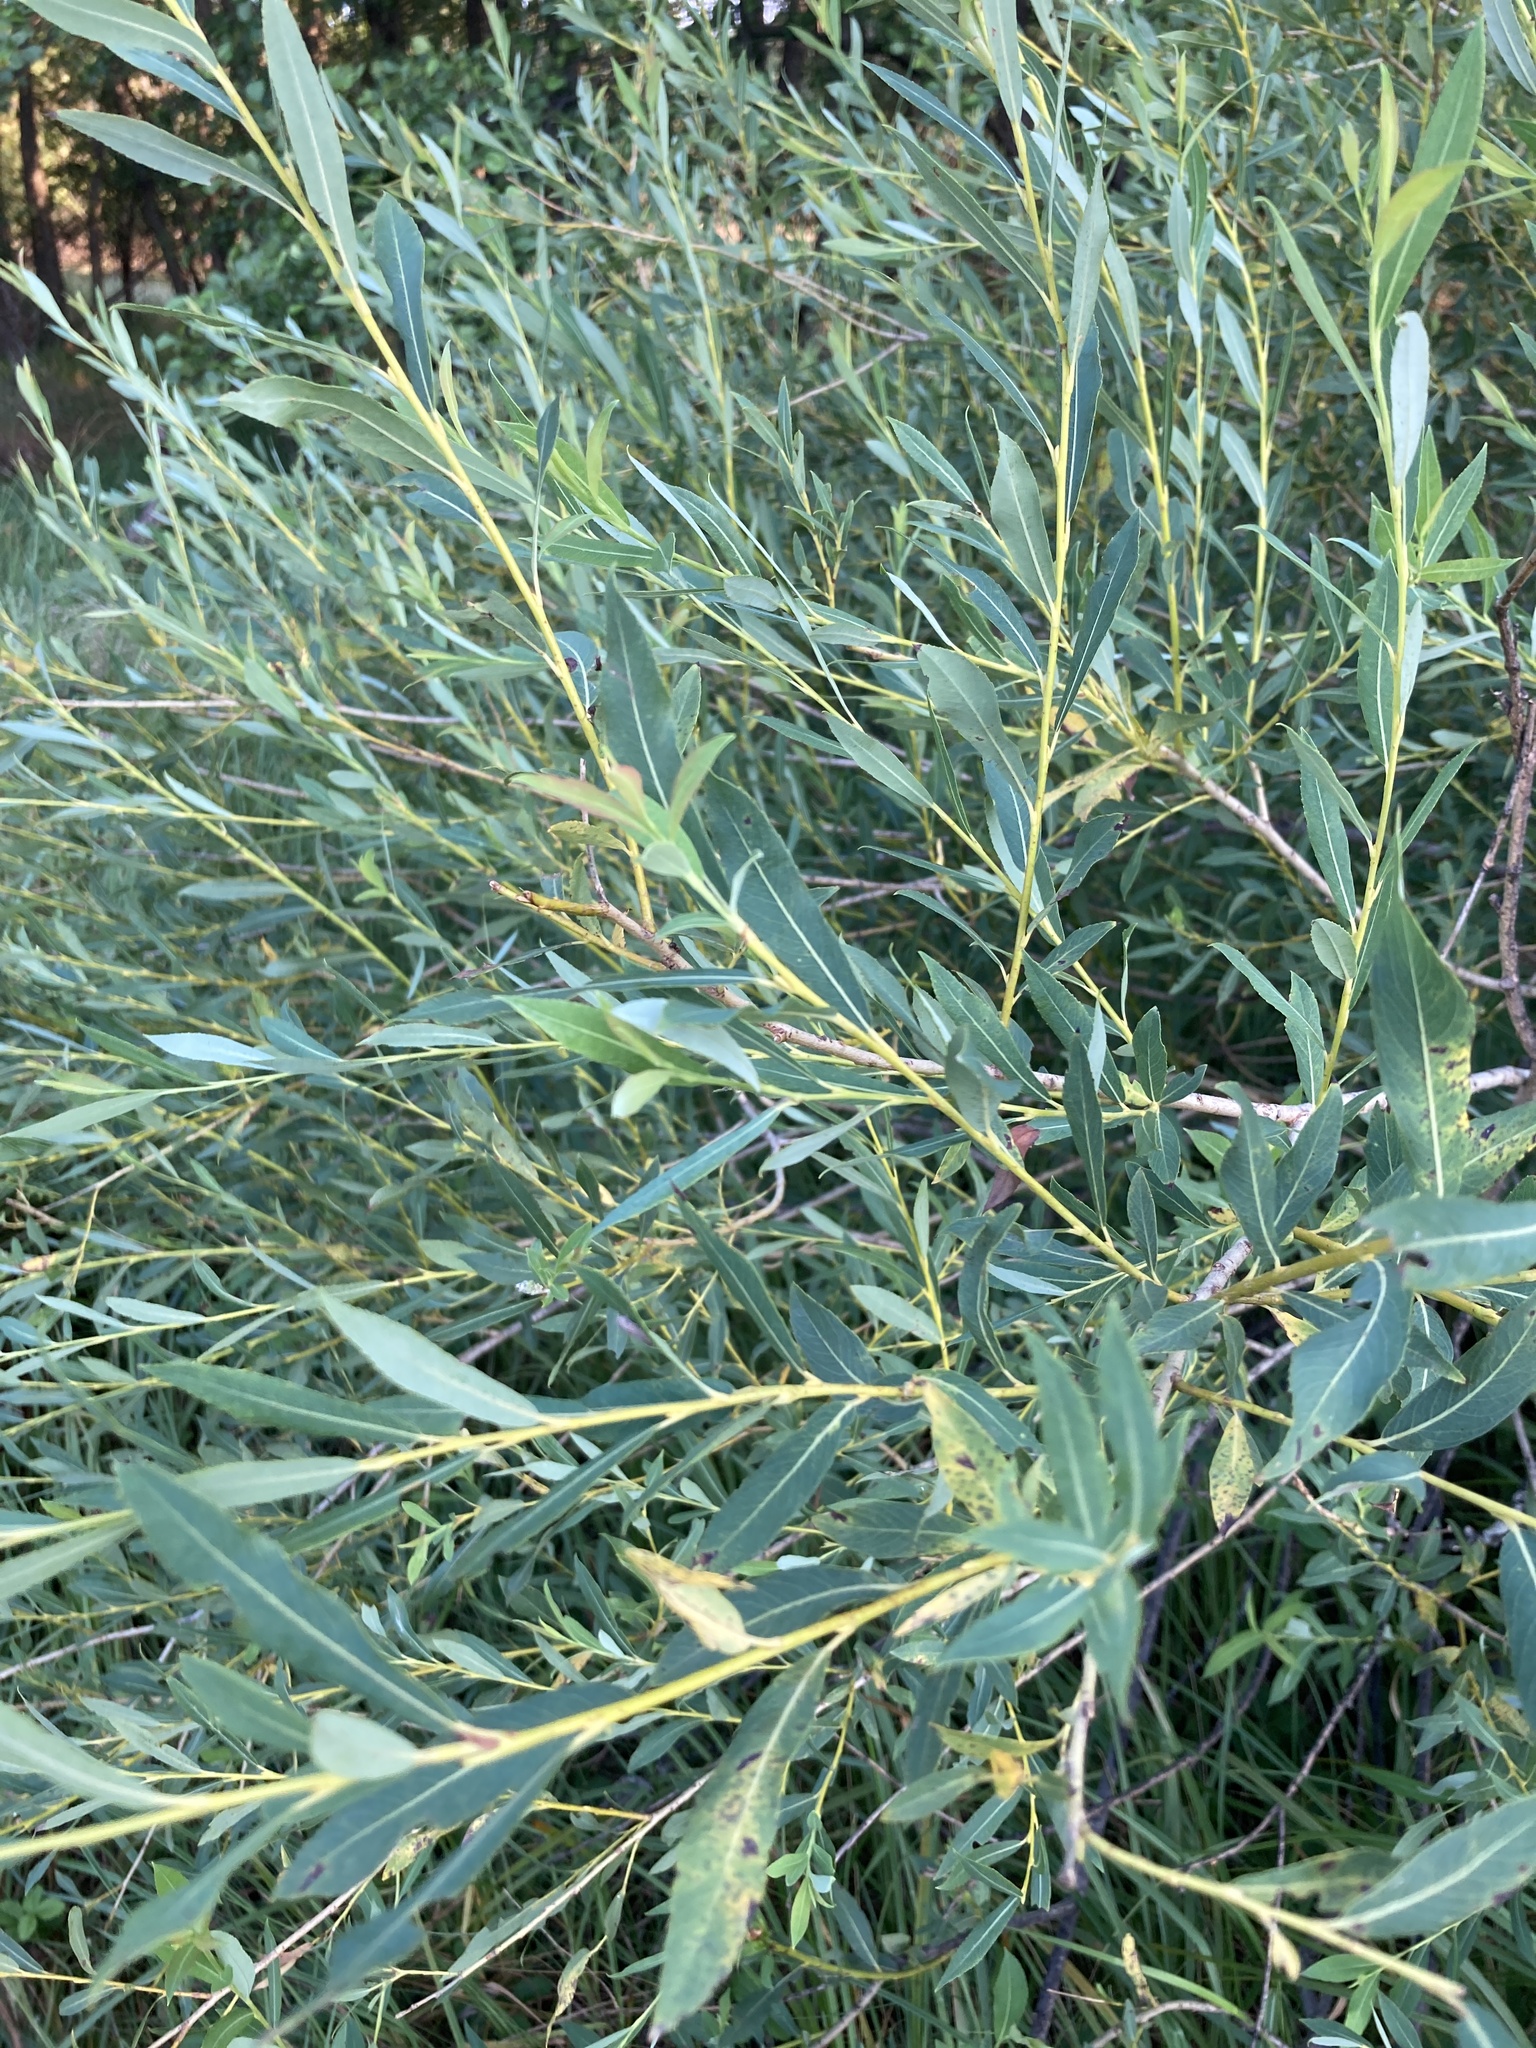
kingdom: Plantae
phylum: Tracheophyta
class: Magnoliopsida
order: Malpighiales
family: Salicaceae
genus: Salix
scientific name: Salix vinogradovii
